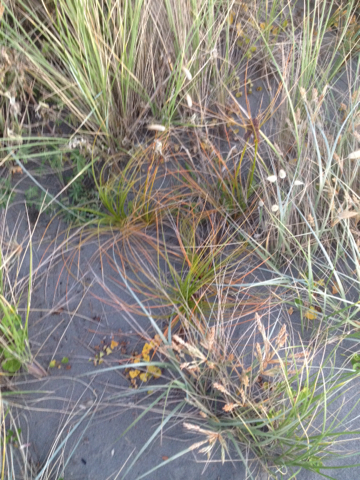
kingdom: Plantae
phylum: Tracheophyta
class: Liliopsida
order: Poales
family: Cyperaceae
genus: Ficinia
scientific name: Ficinia spiralis
